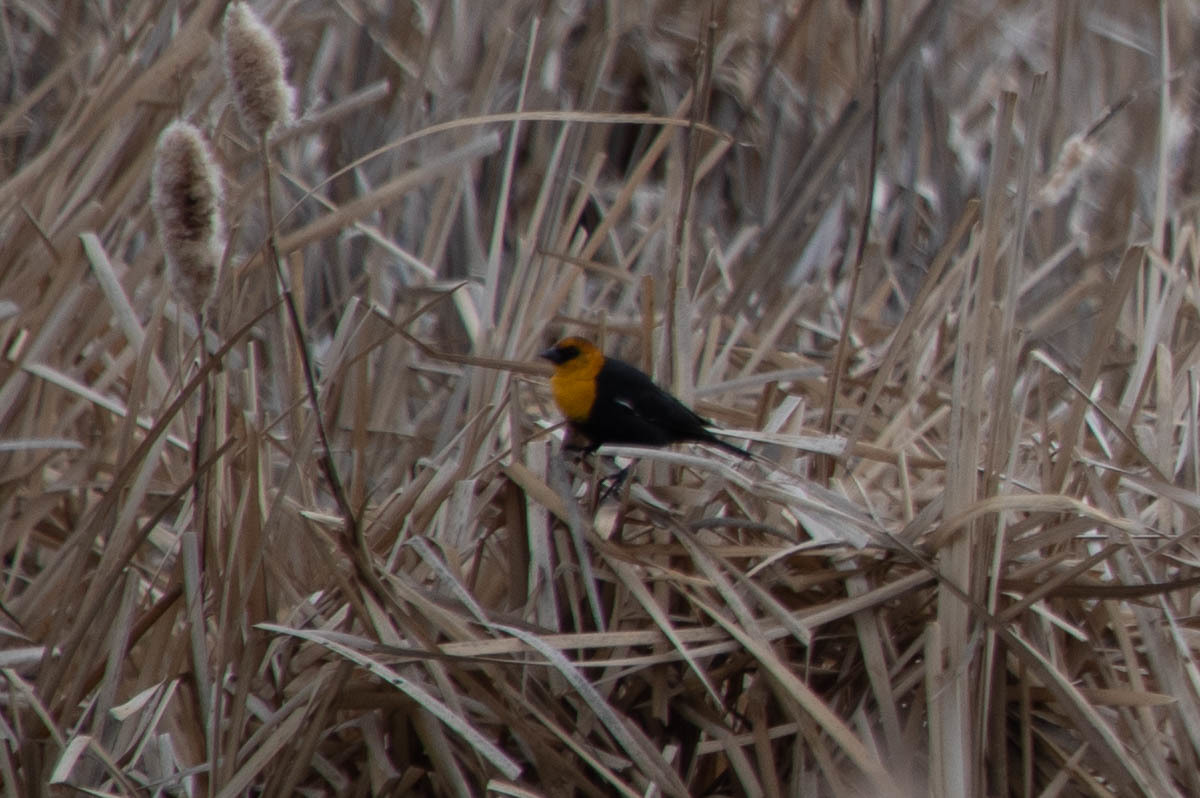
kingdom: Animalia
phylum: Chordata
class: Aves
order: Passeriformes
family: Icteridae
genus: Xanthocephalus
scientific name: Xanthocephalus xanthocephalus
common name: Yellow-headed blackbird
